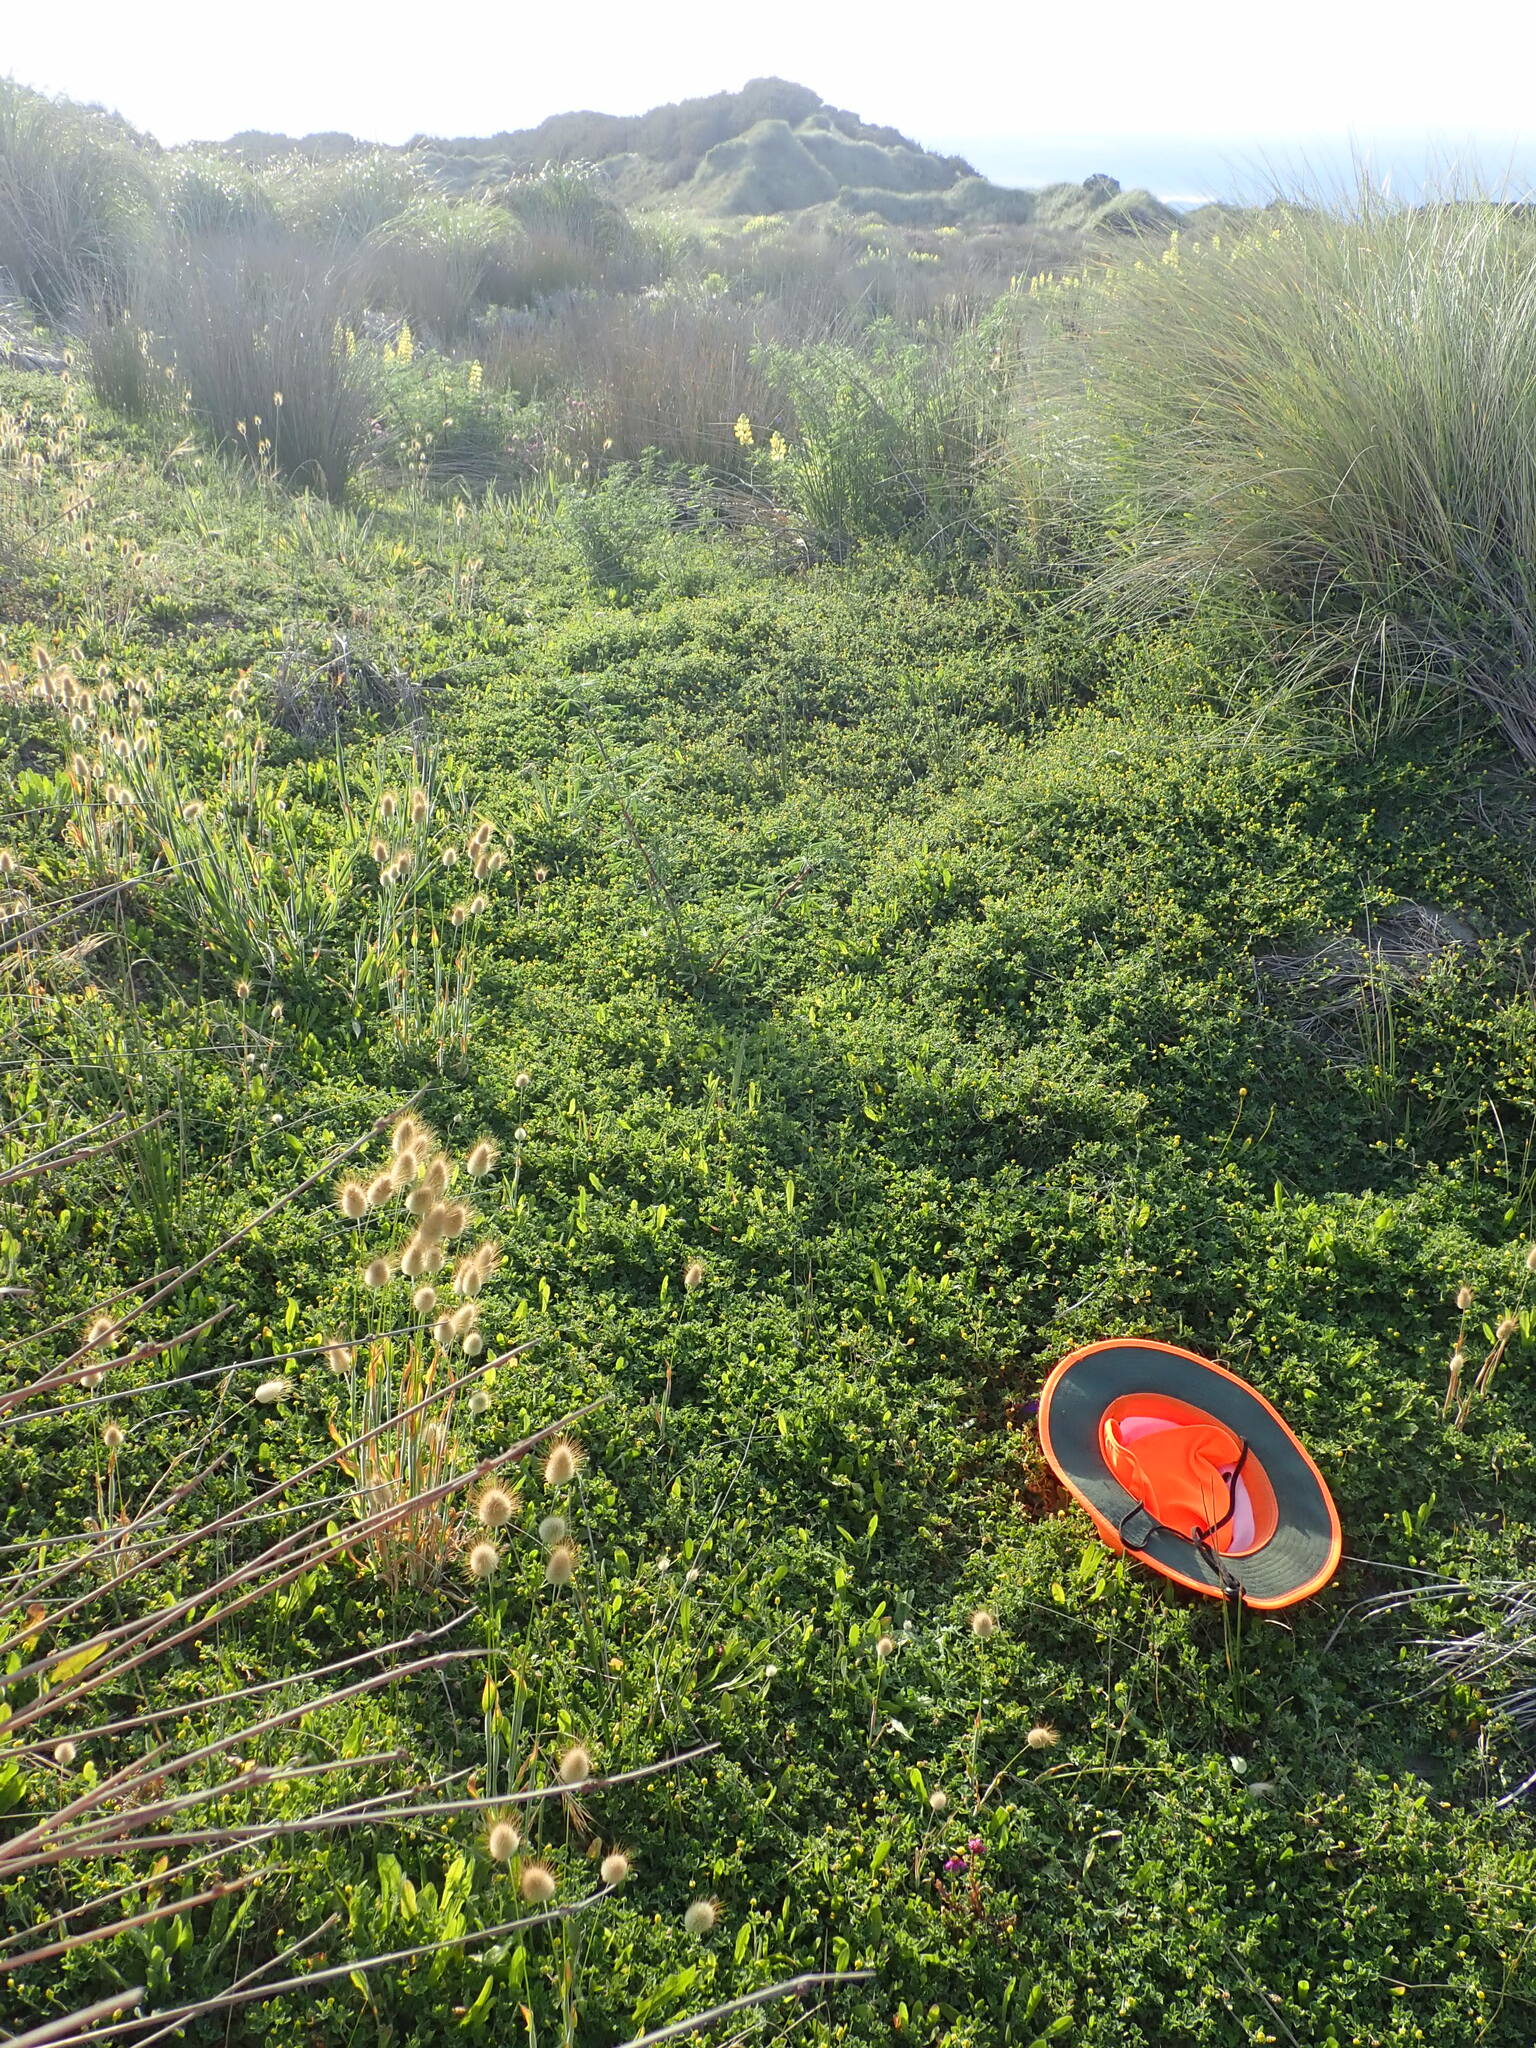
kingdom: Plantae
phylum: Tracheophyta
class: Magnoliopsida
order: Fabales
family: Fabaceae
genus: Medicago
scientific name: Medicago lupulina
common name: Black medick
